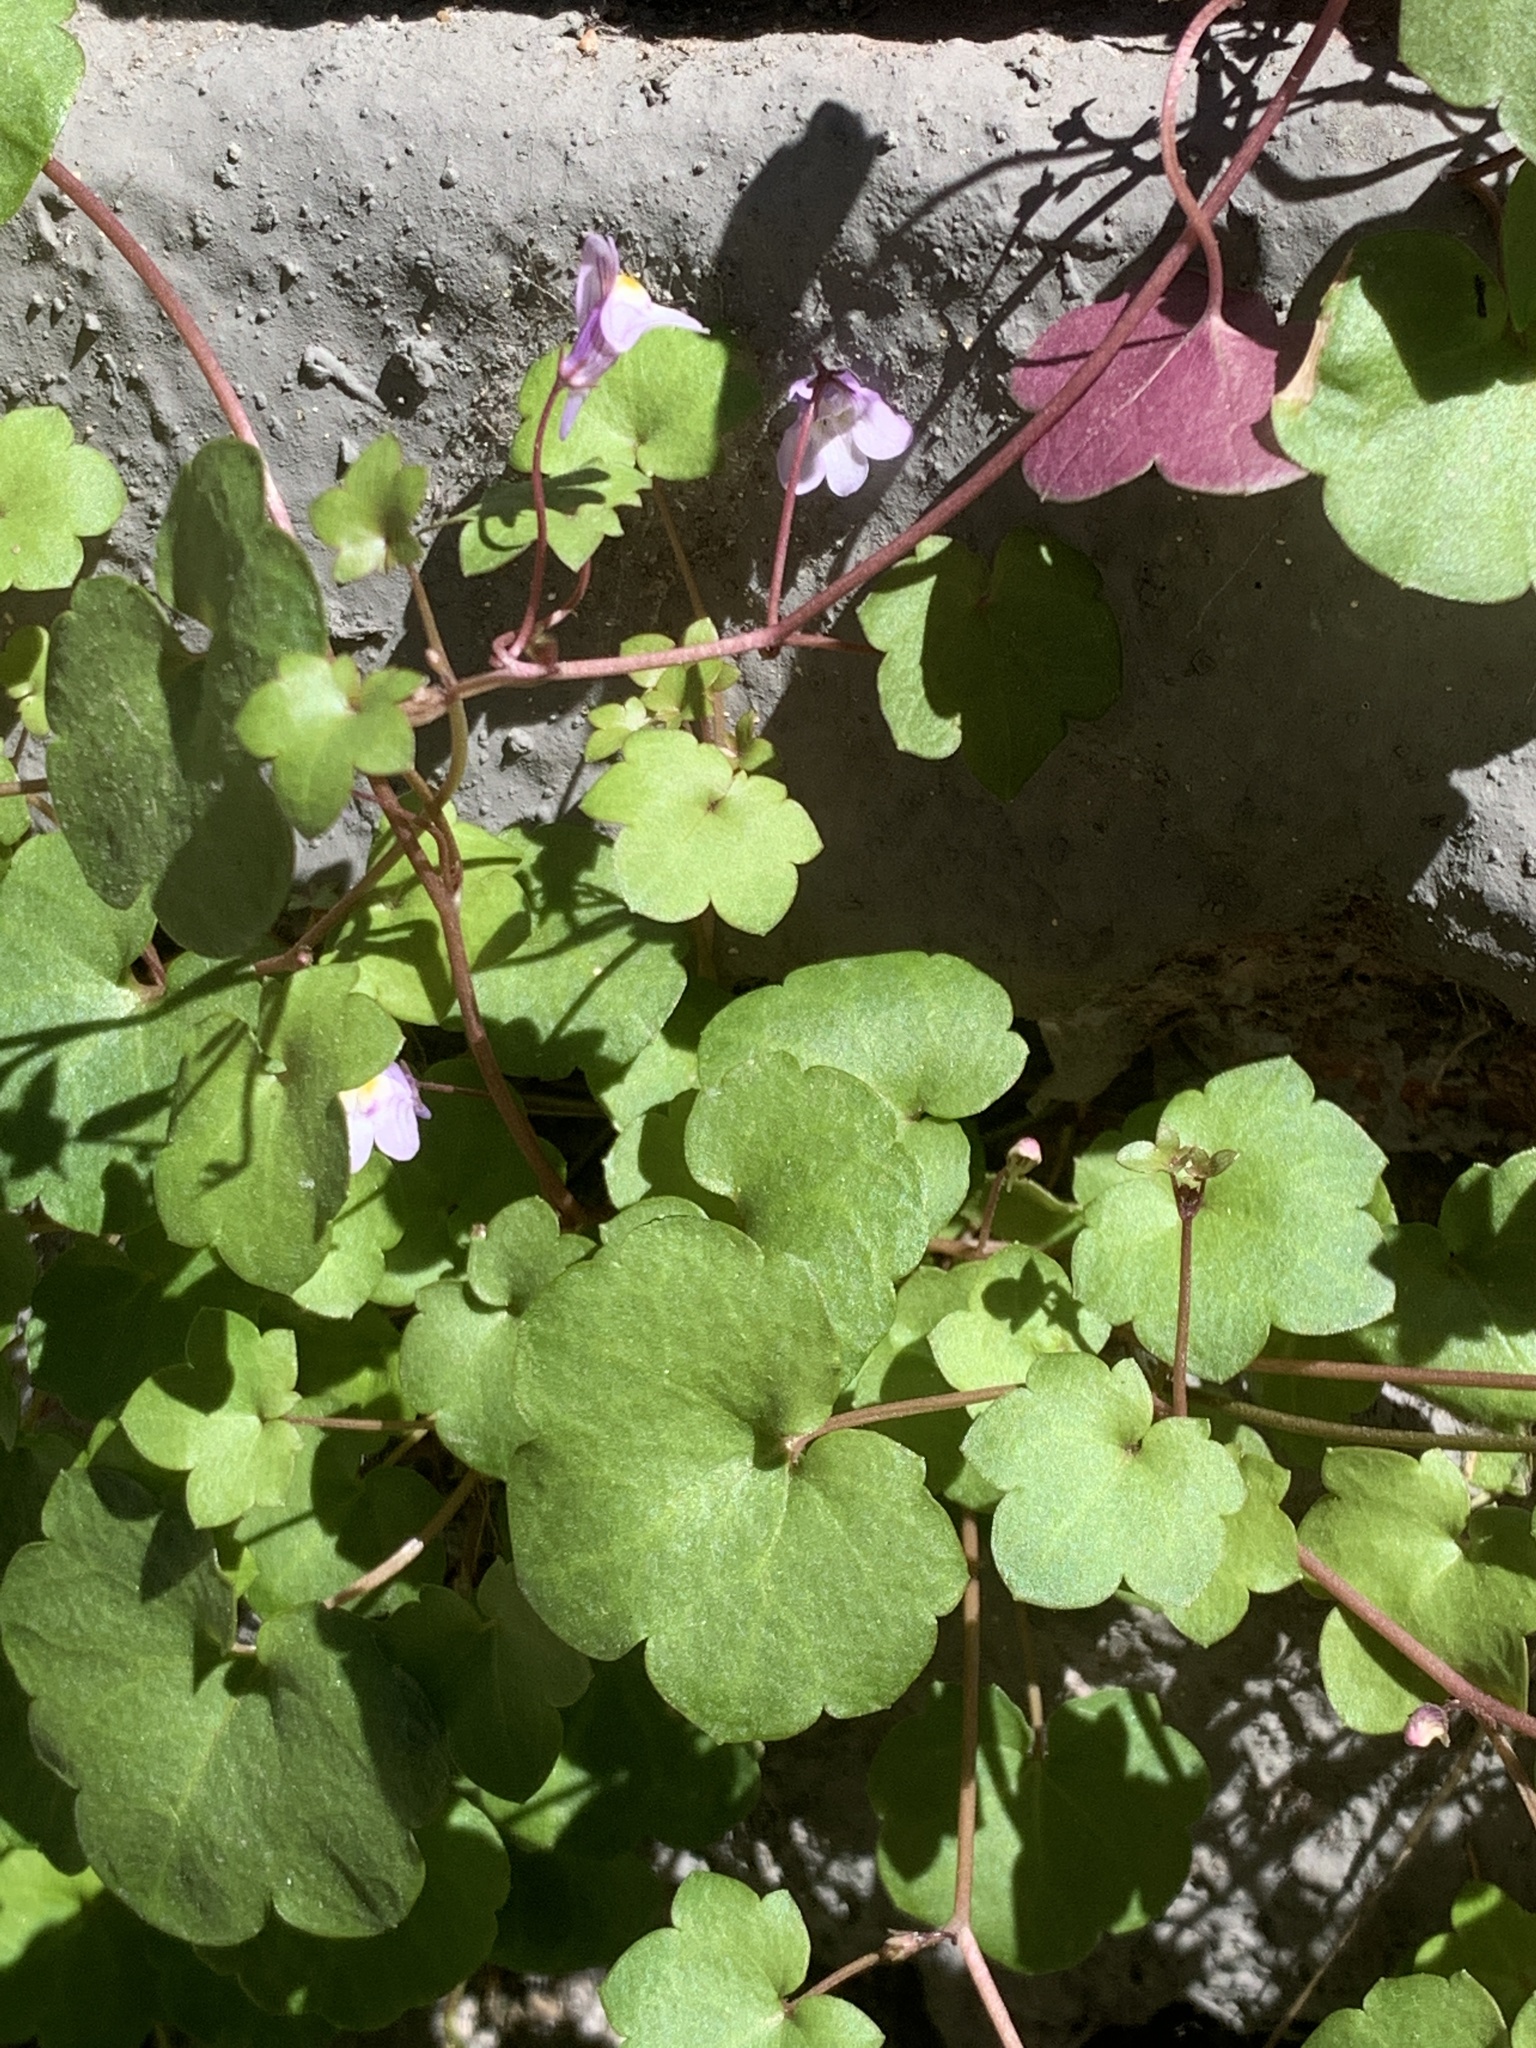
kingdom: Plantae
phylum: Tracheophyta
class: Magnoliopsida
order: Lamiales
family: Plantaginaceae
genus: Cymbalaria
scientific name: Cymbalaria muralis
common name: Ivy-leaved toadflax
